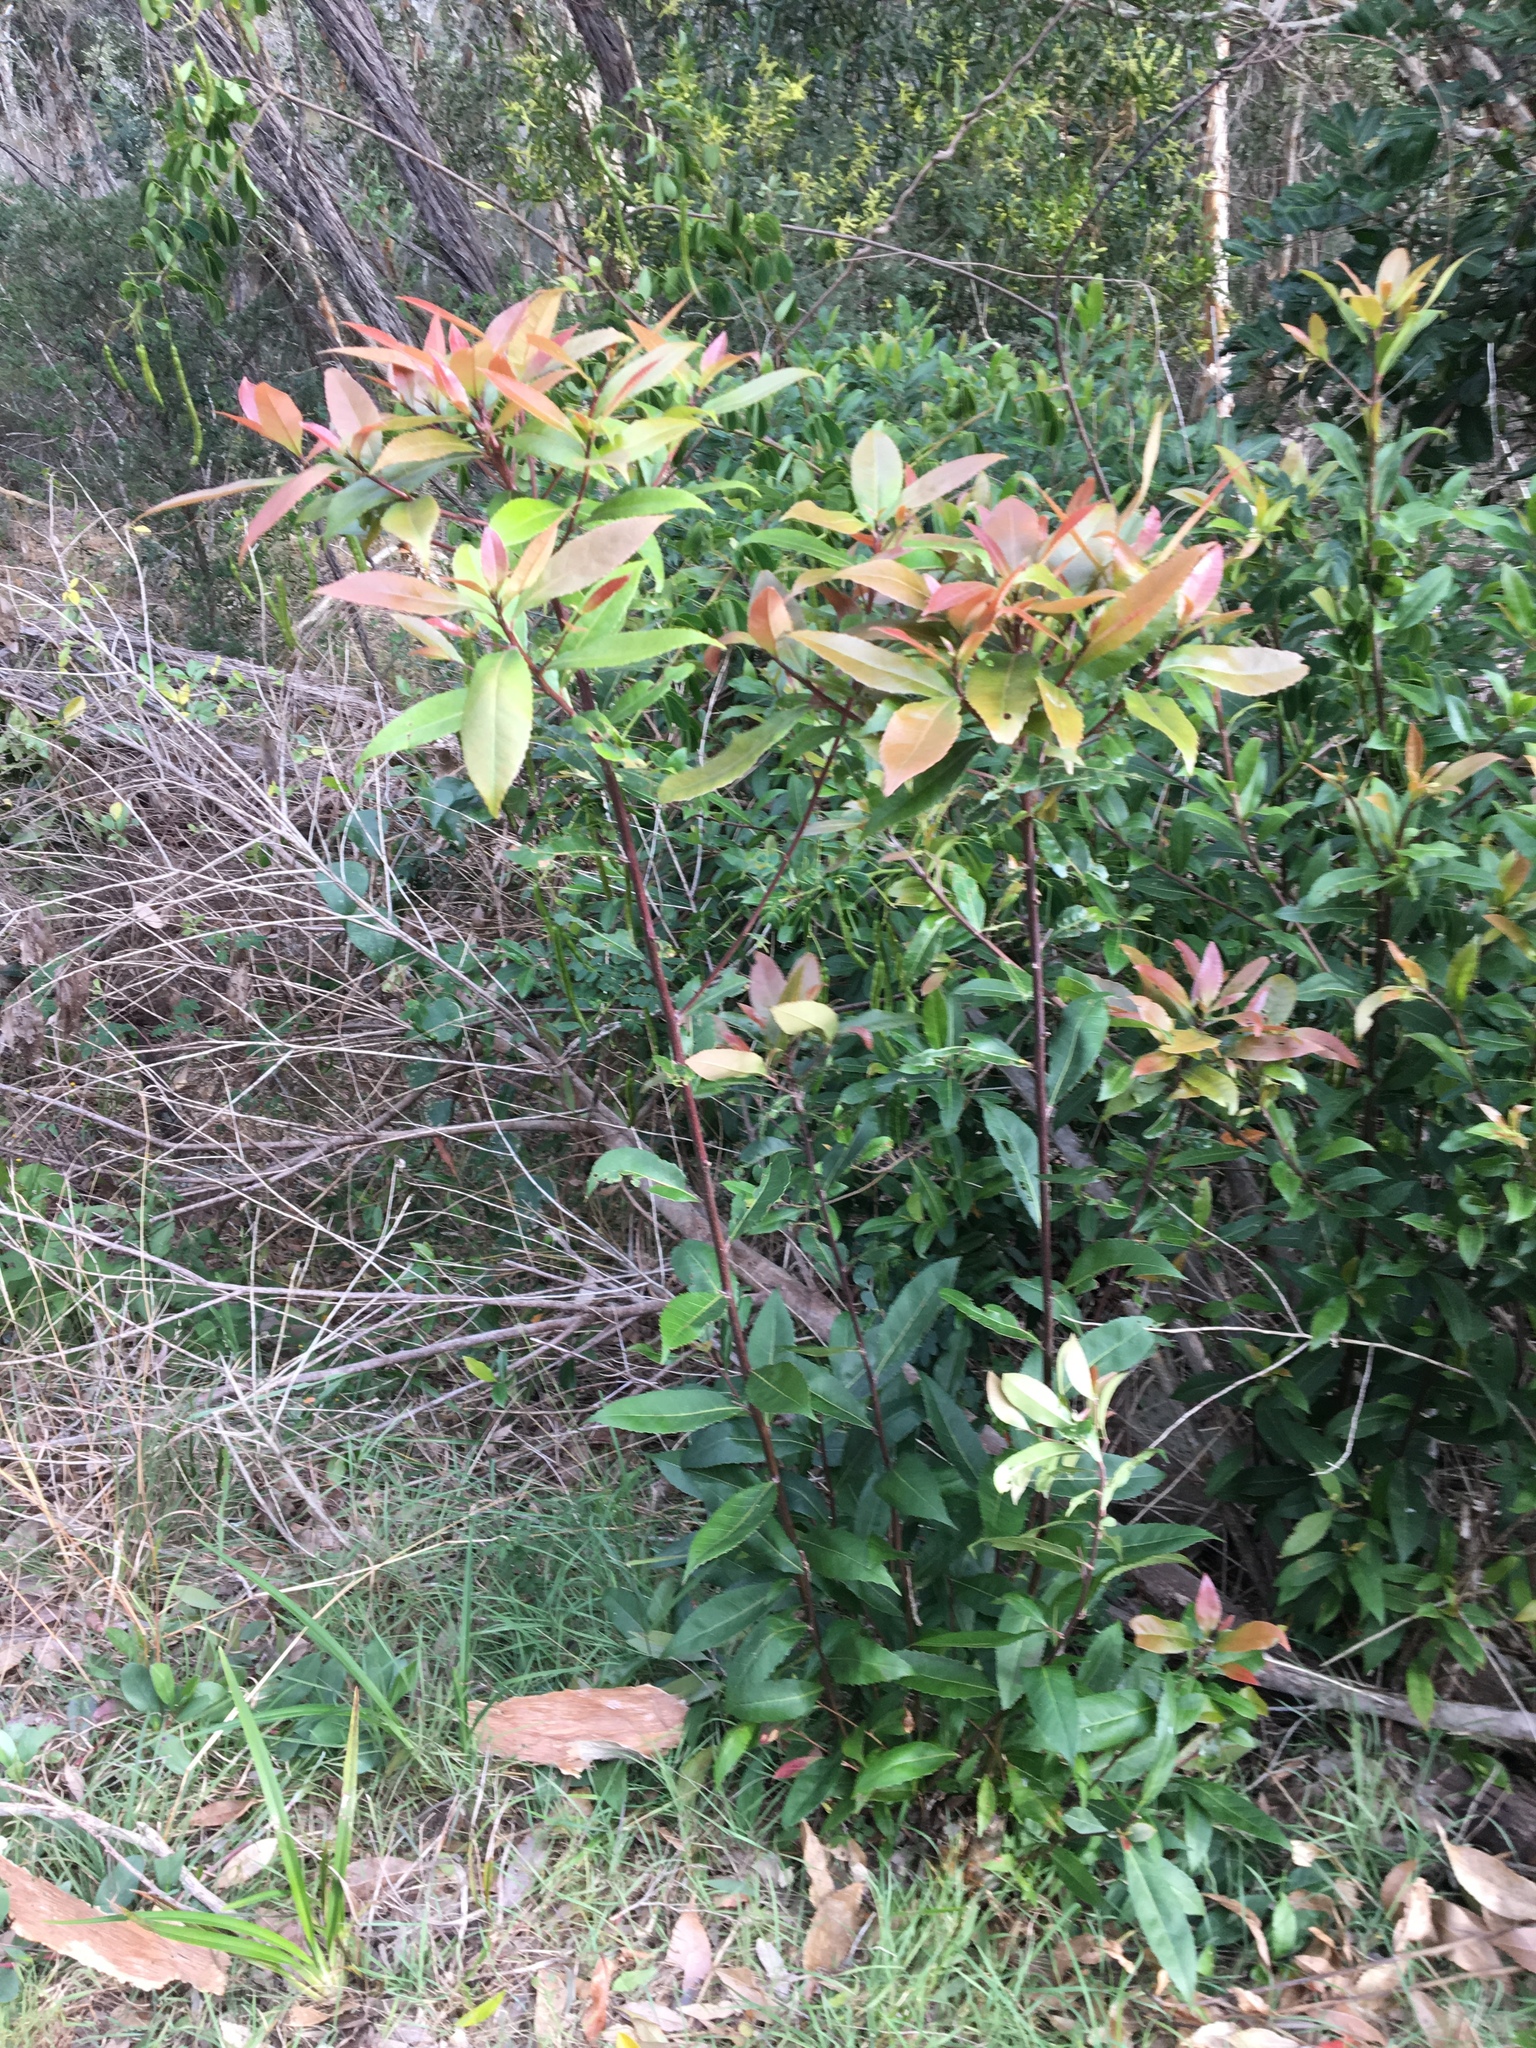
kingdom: Plantae
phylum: Tracheophyta
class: Magnoliopsida
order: Oxalidales
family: Elaeocarpaceae
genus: Elaeocarpus
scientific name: Elaeocarpus reticulatus
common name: Ash quandong
